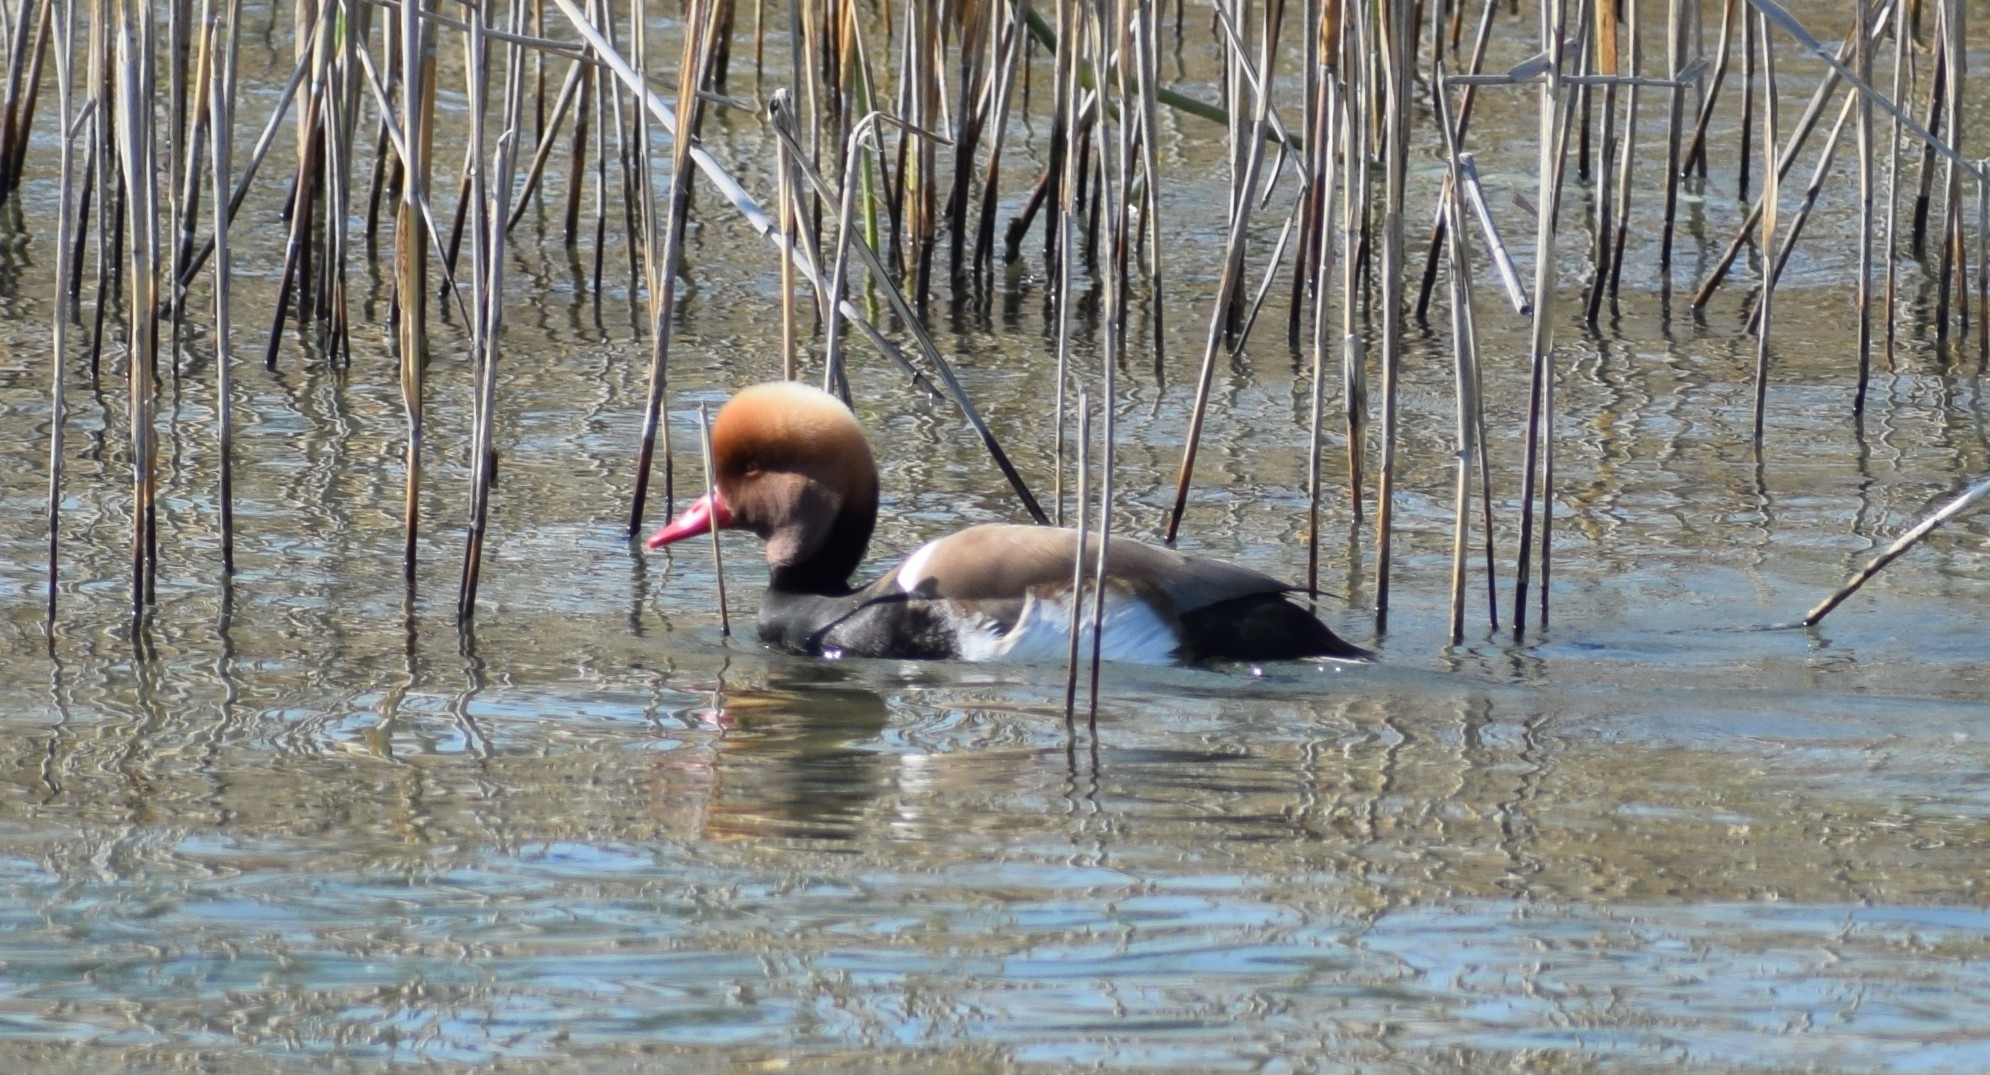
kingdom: Animalia
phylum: Chordata
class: Aves
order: Anseriformes
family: Anatidae
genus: Netta
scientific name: Netta rufina
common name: Red-crested pochard
